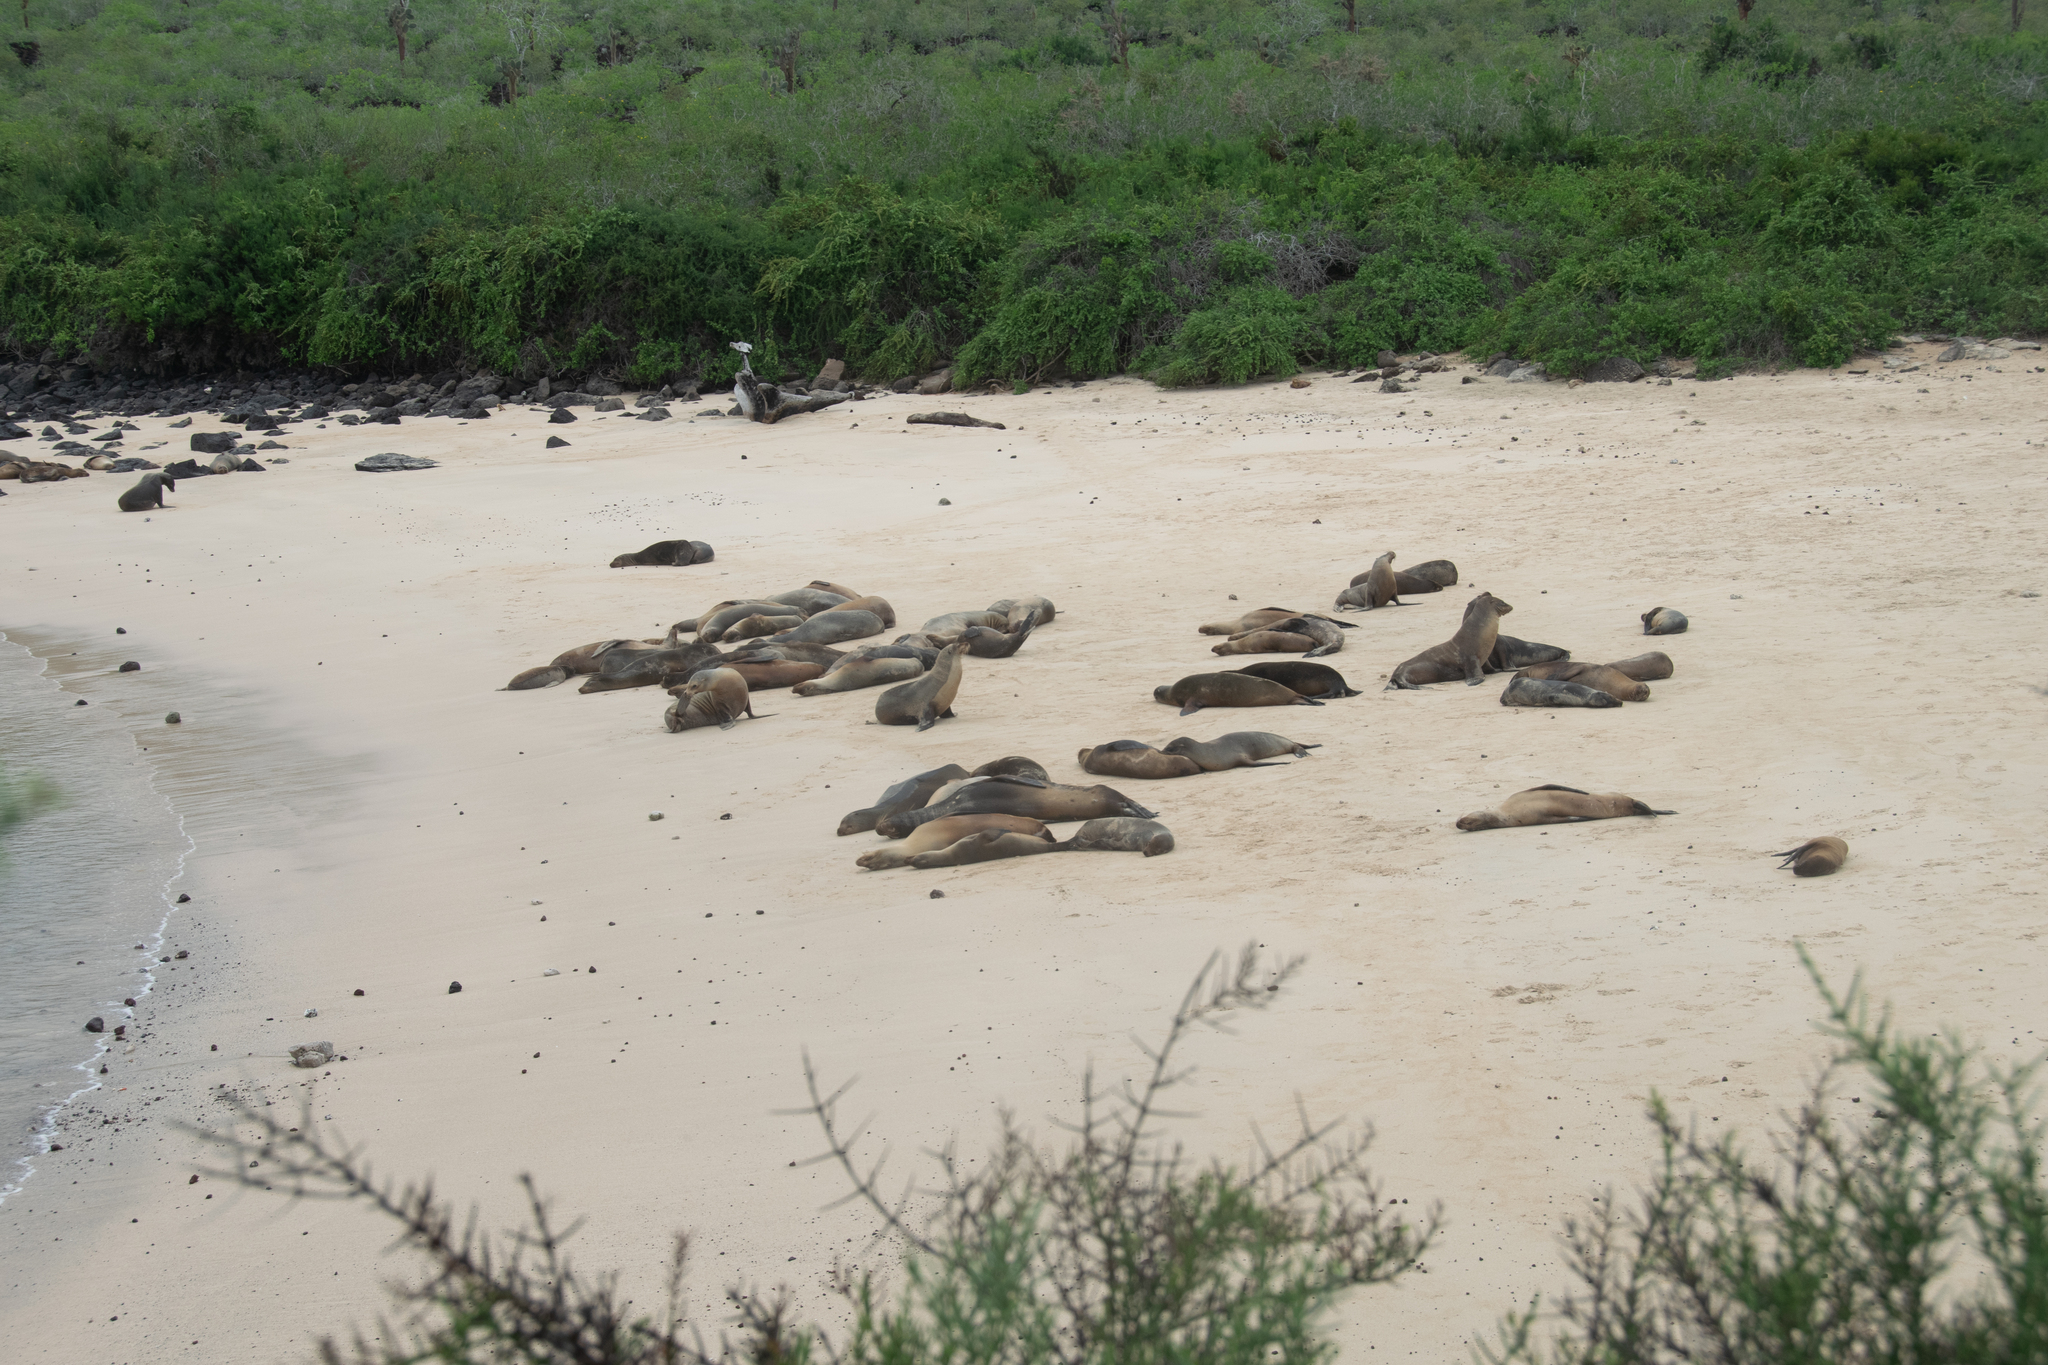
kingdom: Animalia
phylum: Chordata
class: Mammalia
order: Carnivora
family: Otariidae
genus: Zalophus
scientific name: Zalophus wollebaeki
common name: Galapagos sea lion
